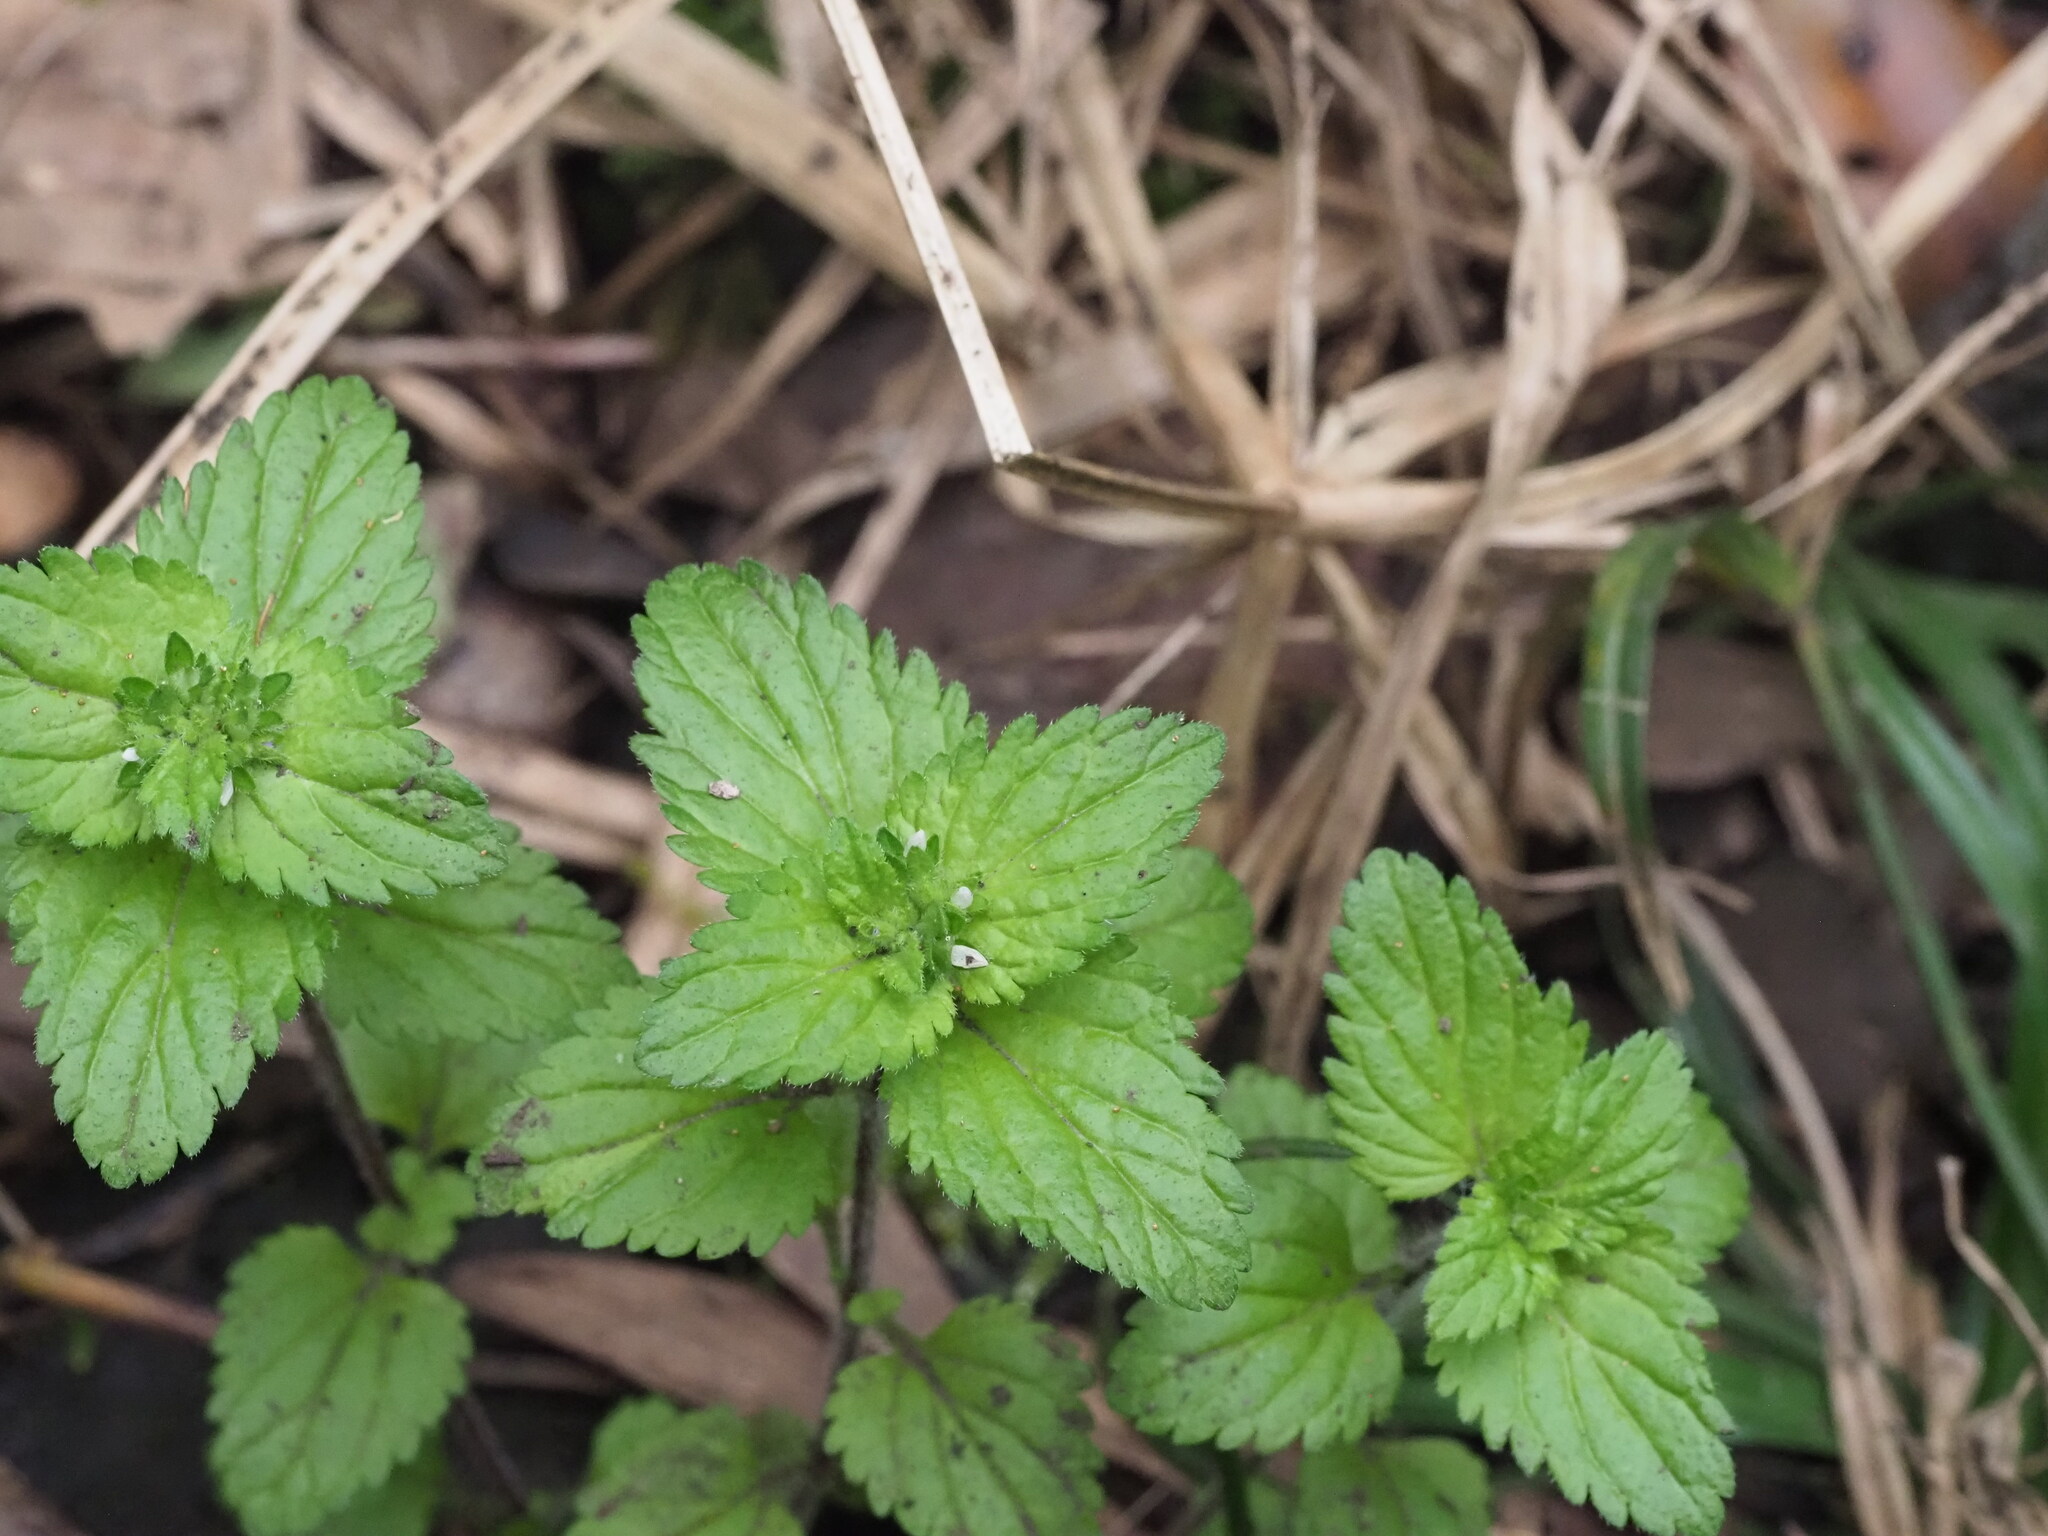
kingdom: Plantae
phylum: Tracheophyta
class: Magnoliopsida
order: Lamiales
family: Plantaginaceae
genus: Veronica
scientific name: Veronica javanica
